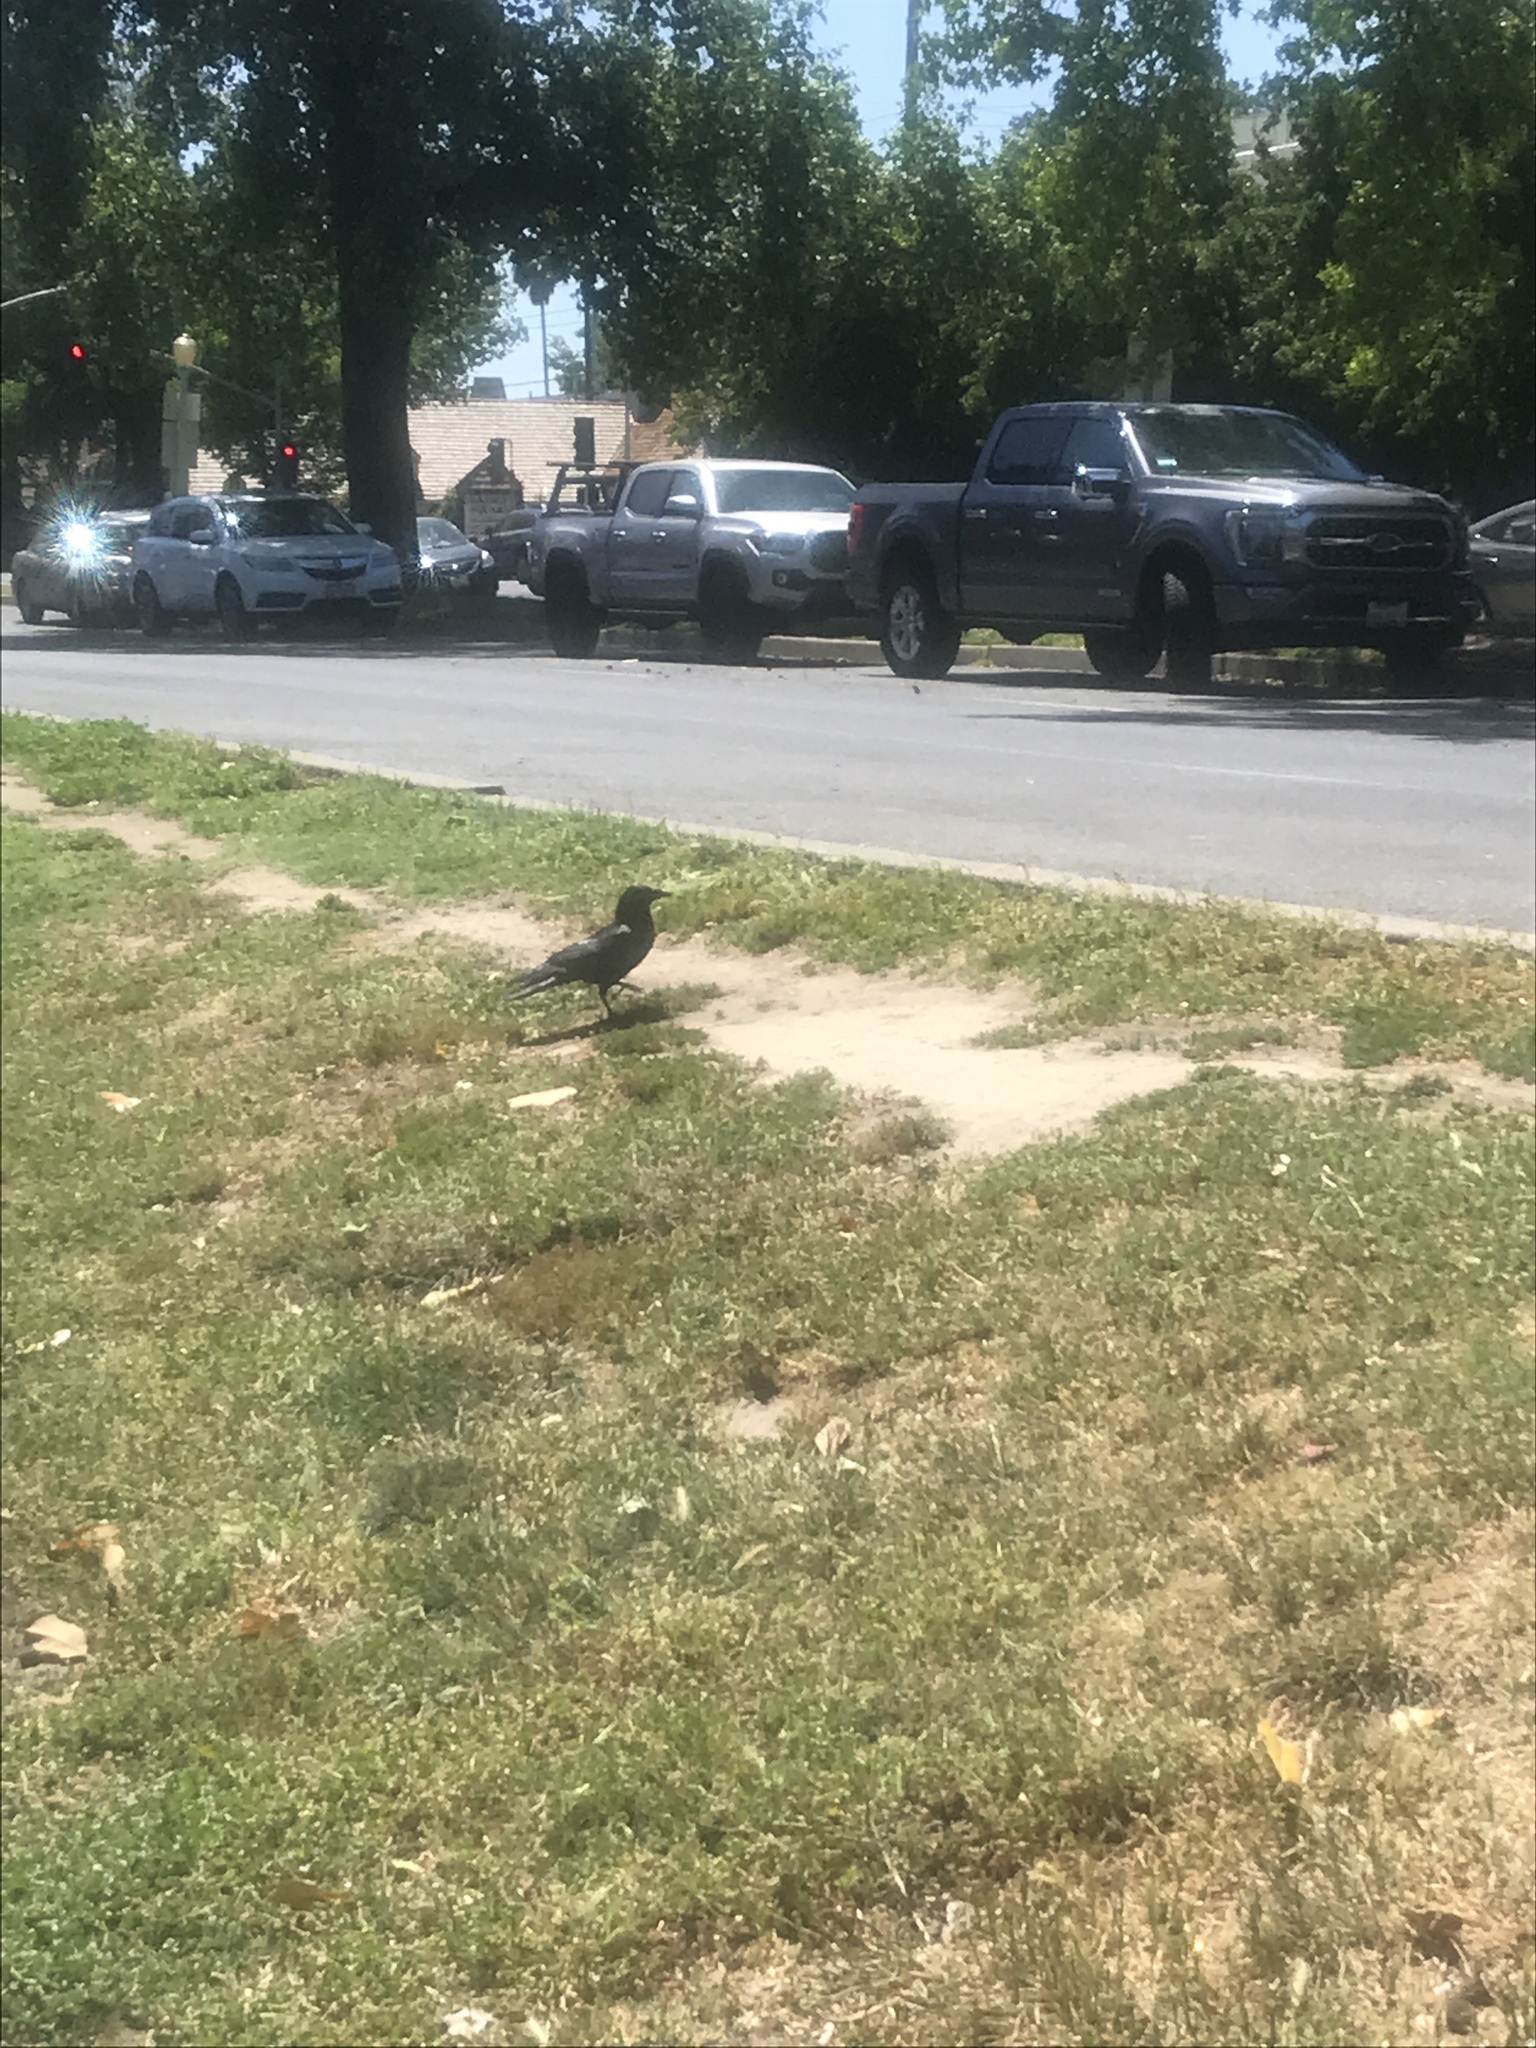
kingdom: Animalia
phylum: Chordata
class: Aves
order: Passeriformes
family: Corvidae
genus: Corvus
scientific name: Corvus brachyrhynchos
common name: American crow
